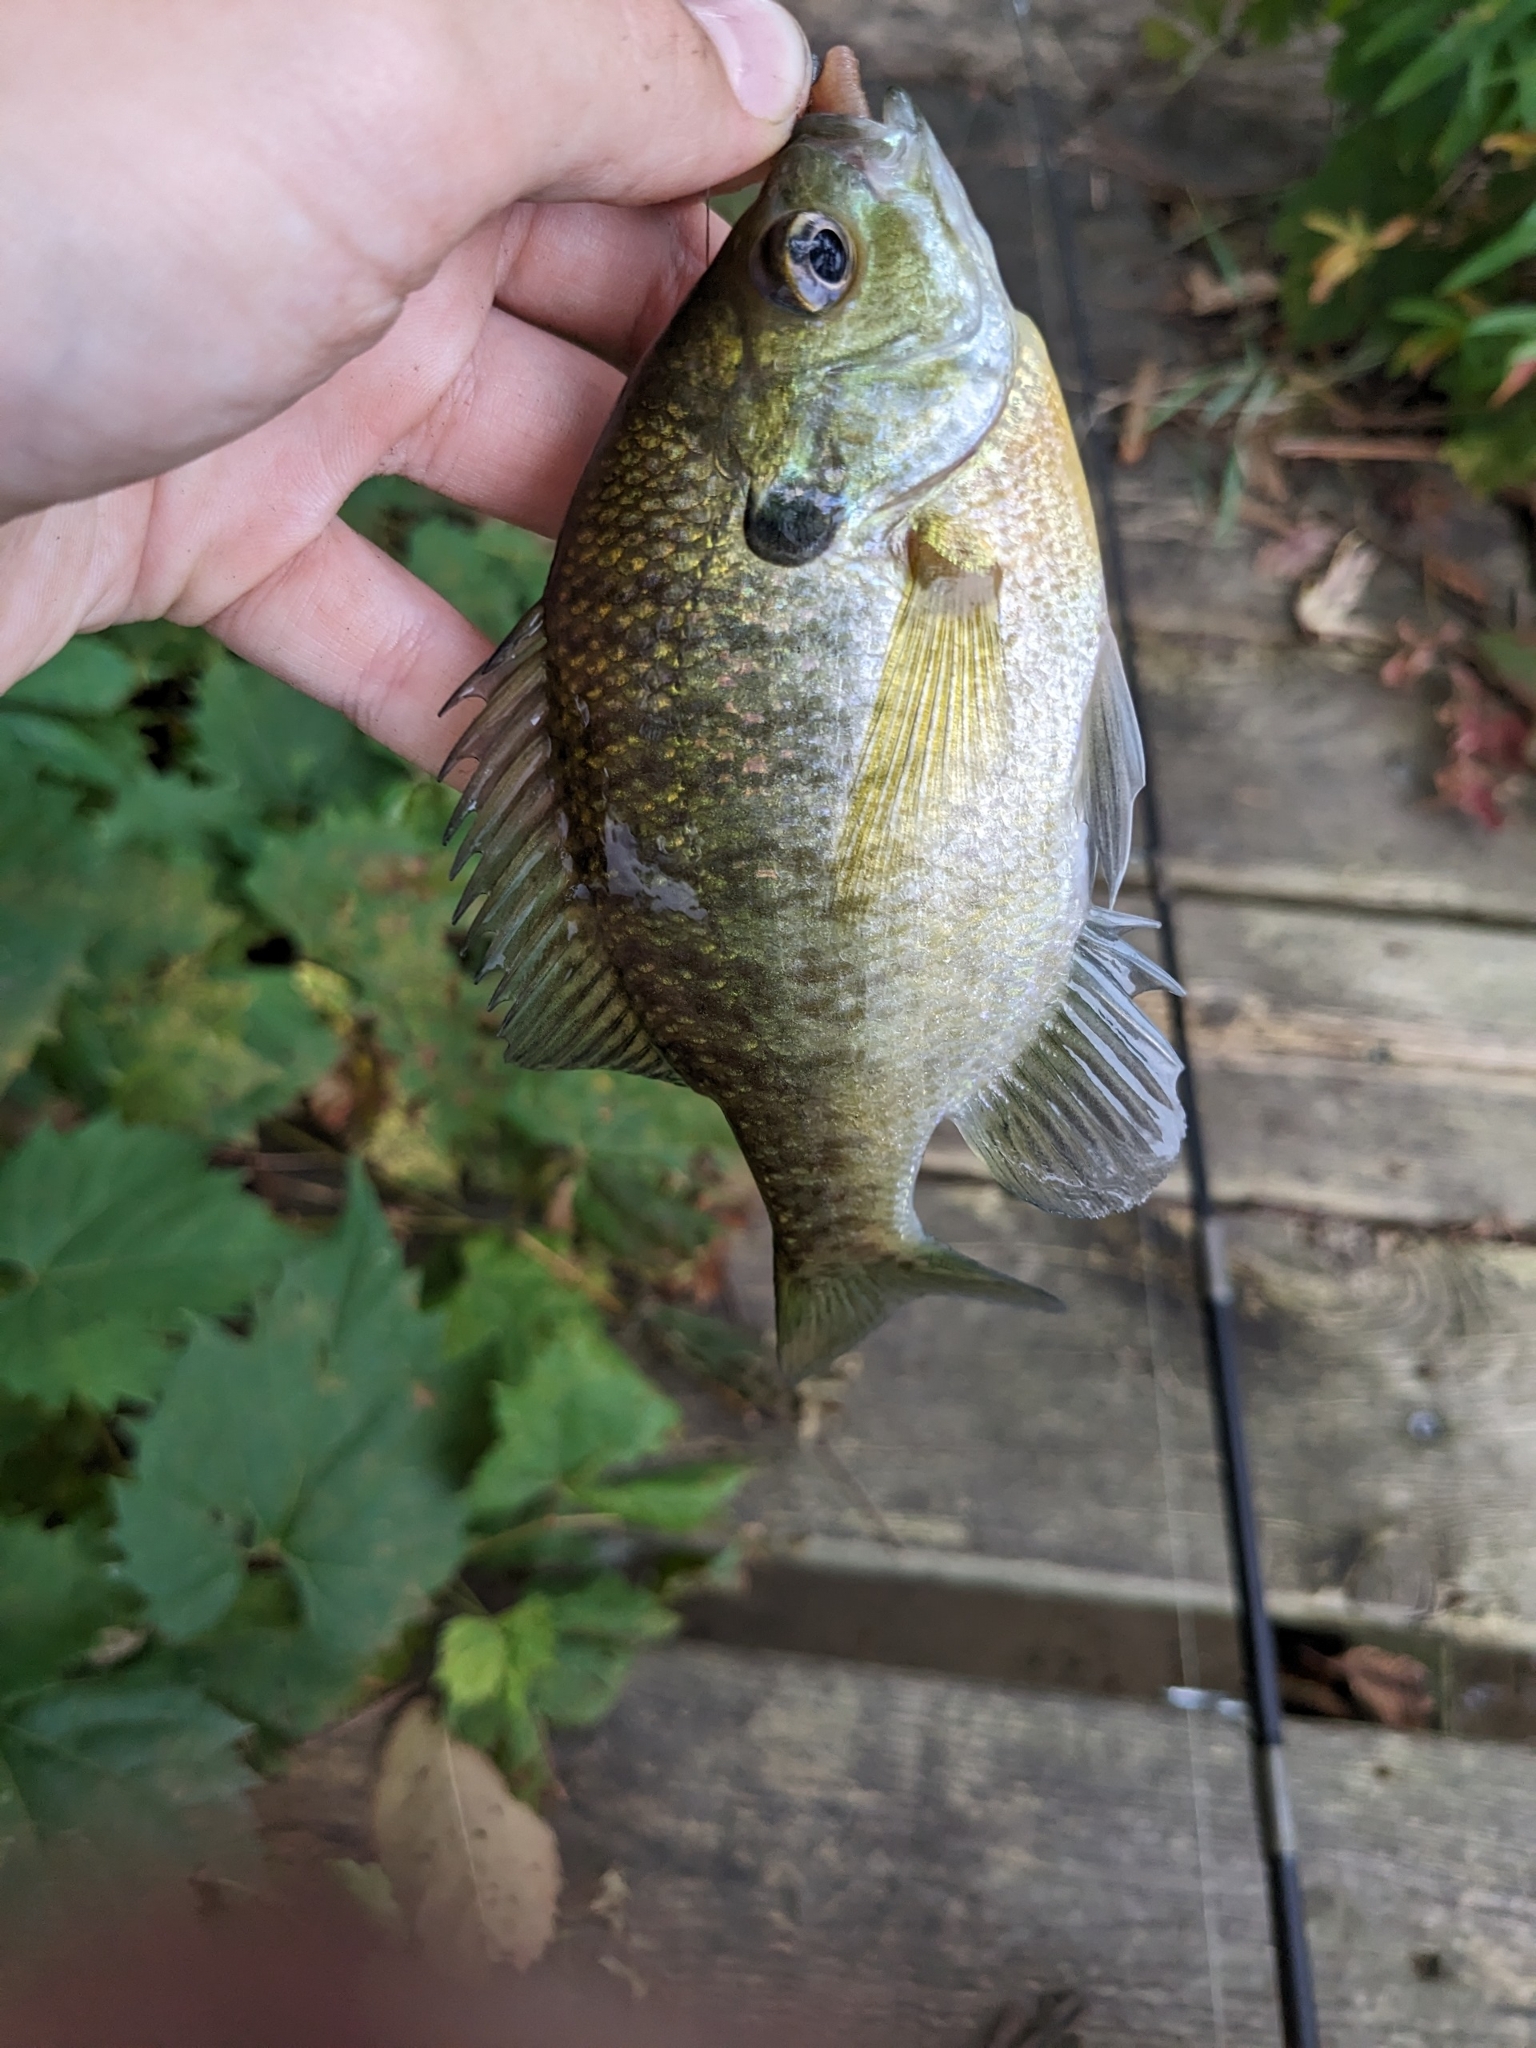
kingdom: Animalia
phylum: Chordata
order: Perciformes
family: Centrarchidae
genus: Lepomis
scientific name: Lepomis macrochirus
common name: Bluegill
